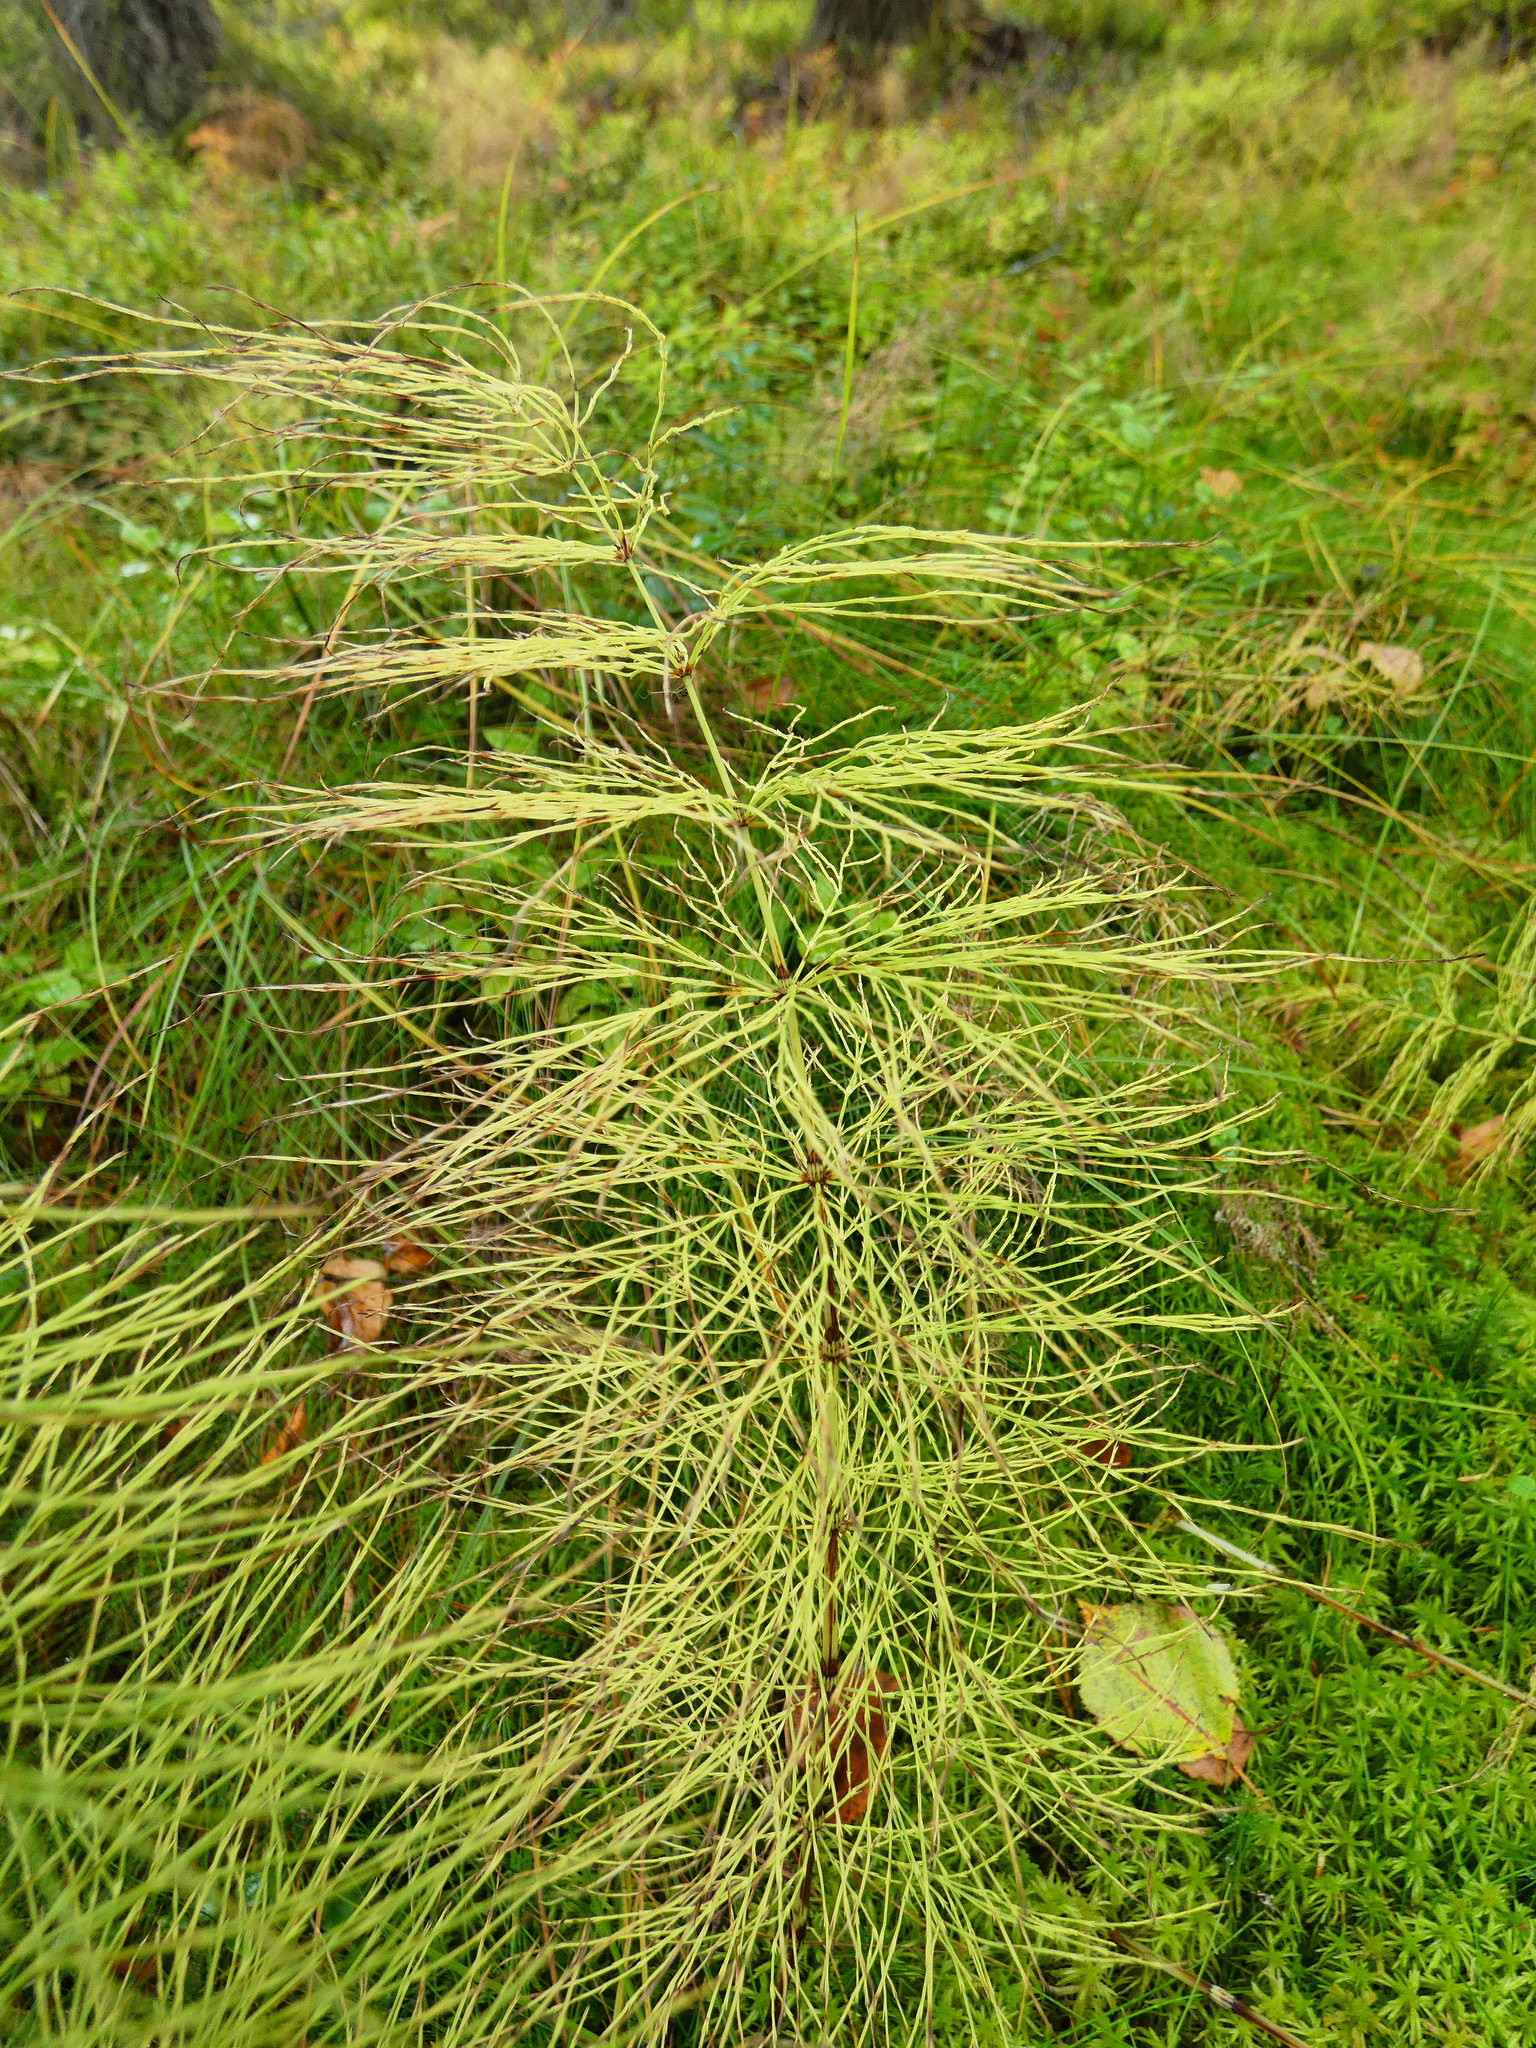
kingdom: Plantae
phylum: Tracheophyta
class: Polypodiopsida
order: Equisetales
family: Equisetaceae
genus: Equisetum
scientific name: Equisetum sylvaticum
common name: Wood horsetail
